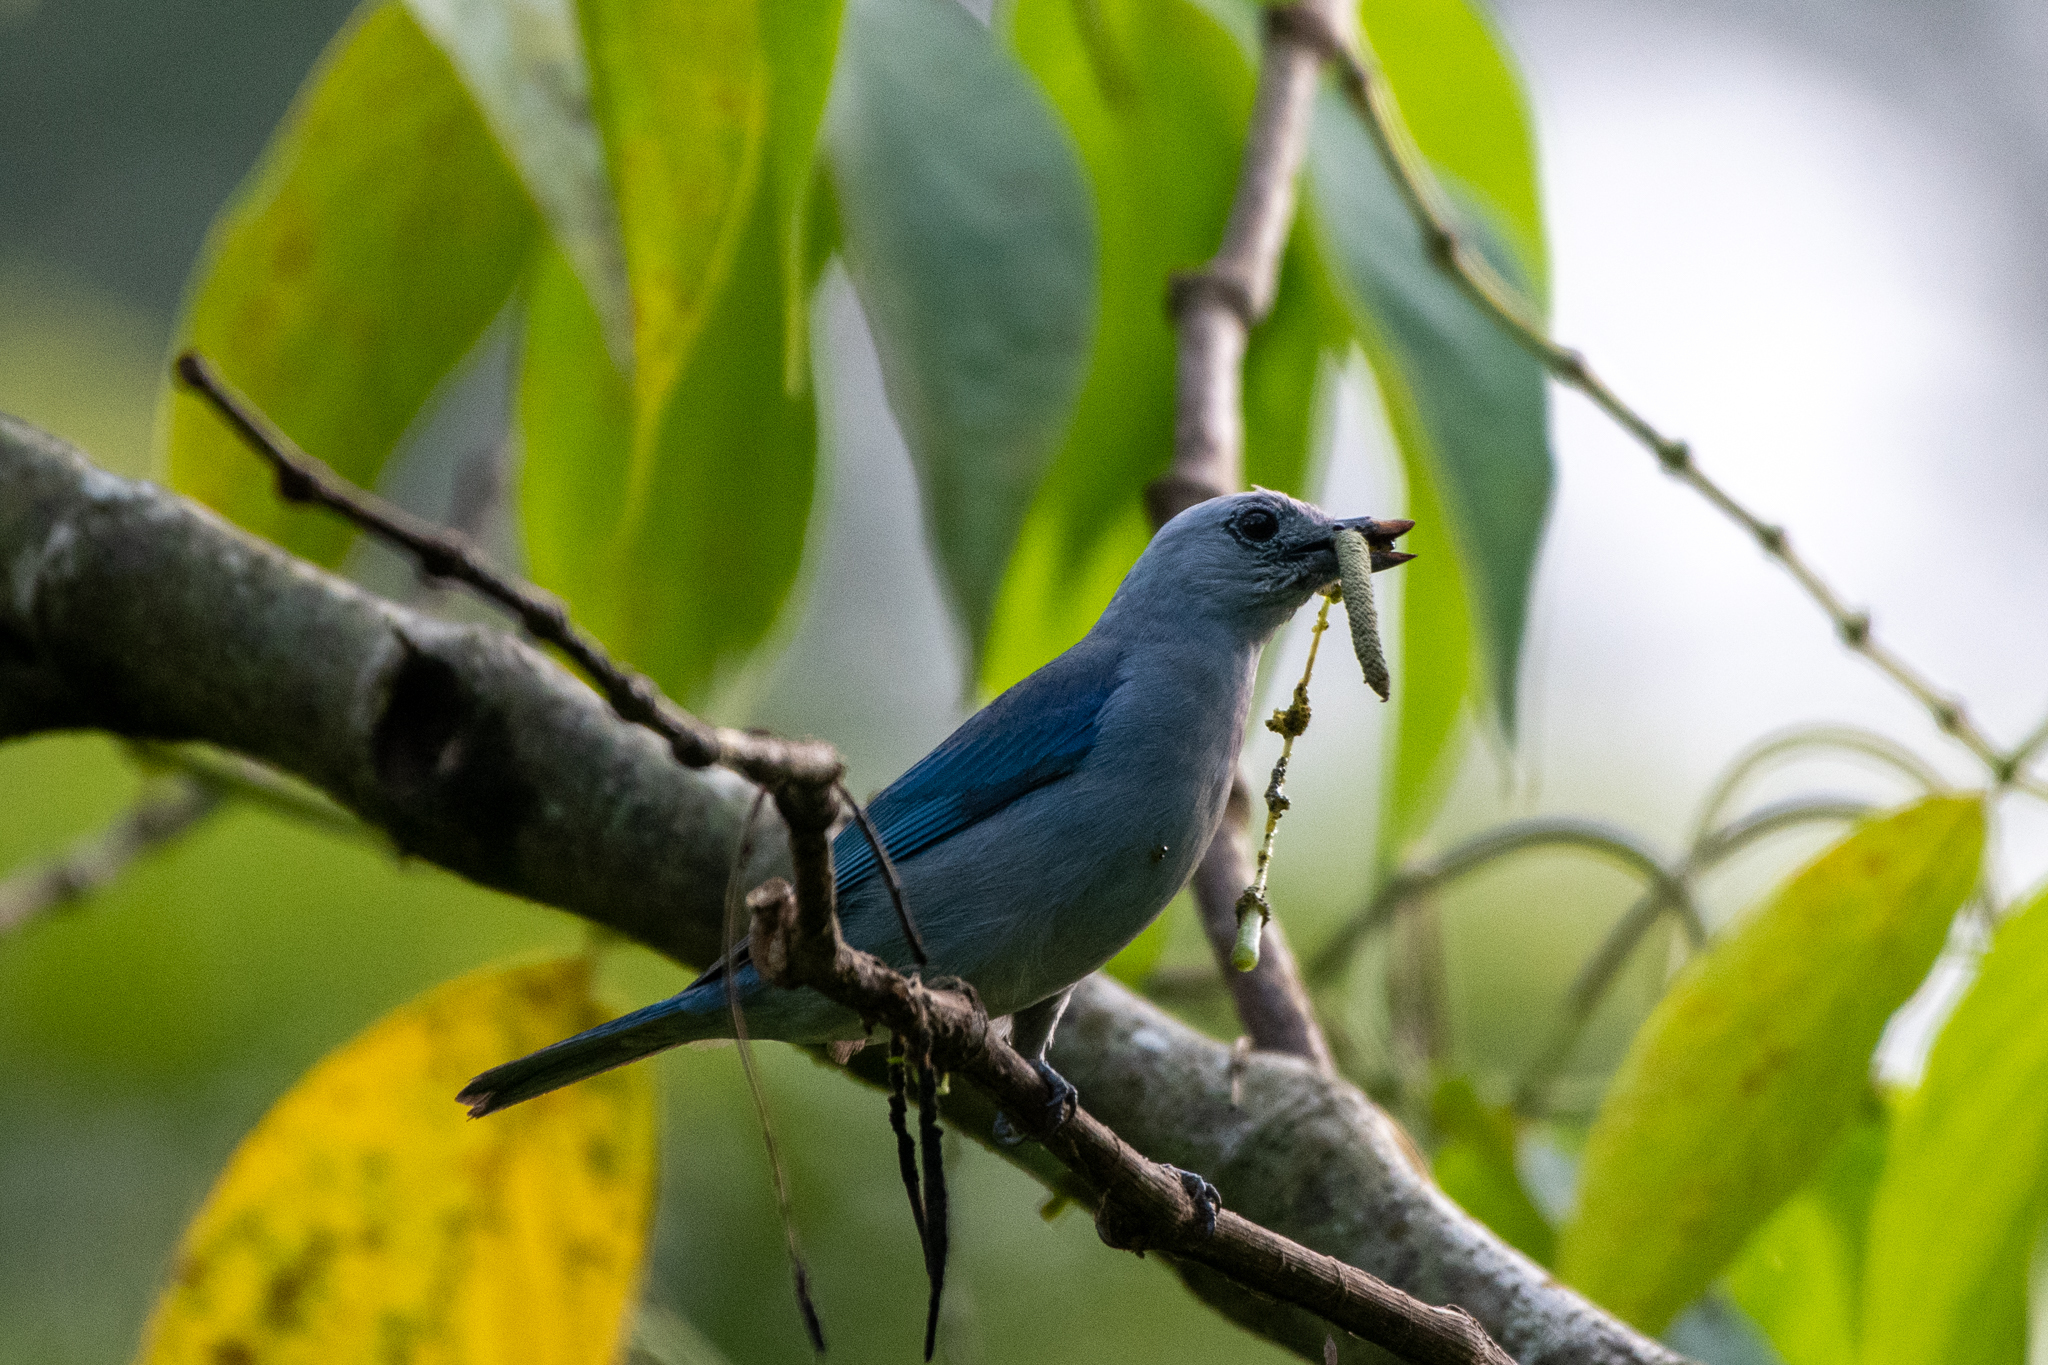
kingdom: Animalia
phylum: Chordata
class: Aves
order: Passeriformes
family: Thraupidae
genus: Thraupis
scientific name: Thraupis episcopus
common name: Blue-grey tanager
